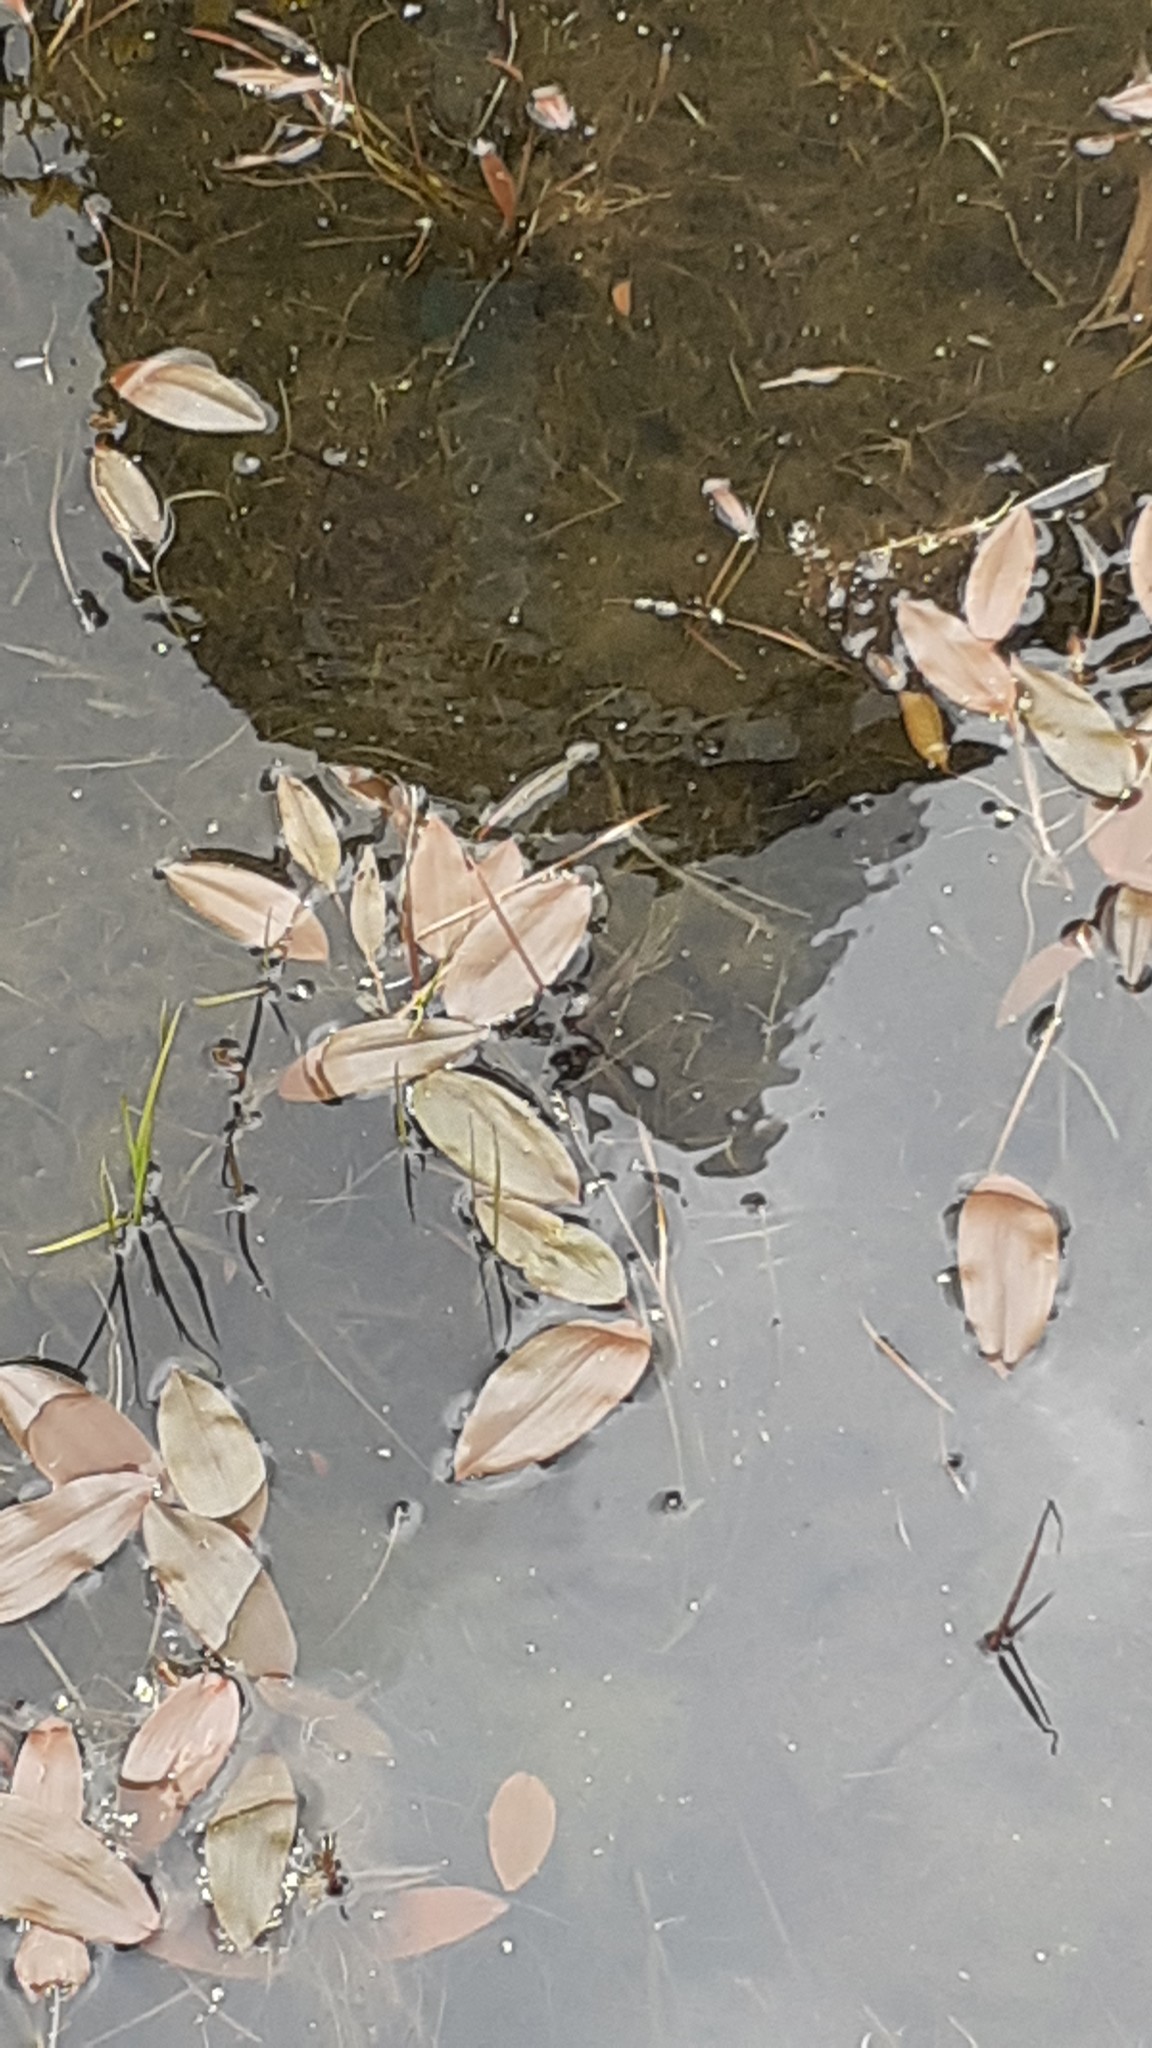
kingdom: Plantae
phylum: Tracheophyta
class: Liliopsida
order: Alismatales
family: Potamogetonaceae
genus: Potamogeton
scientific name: Potamogeton natans
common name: Broad-leaved pondweed
